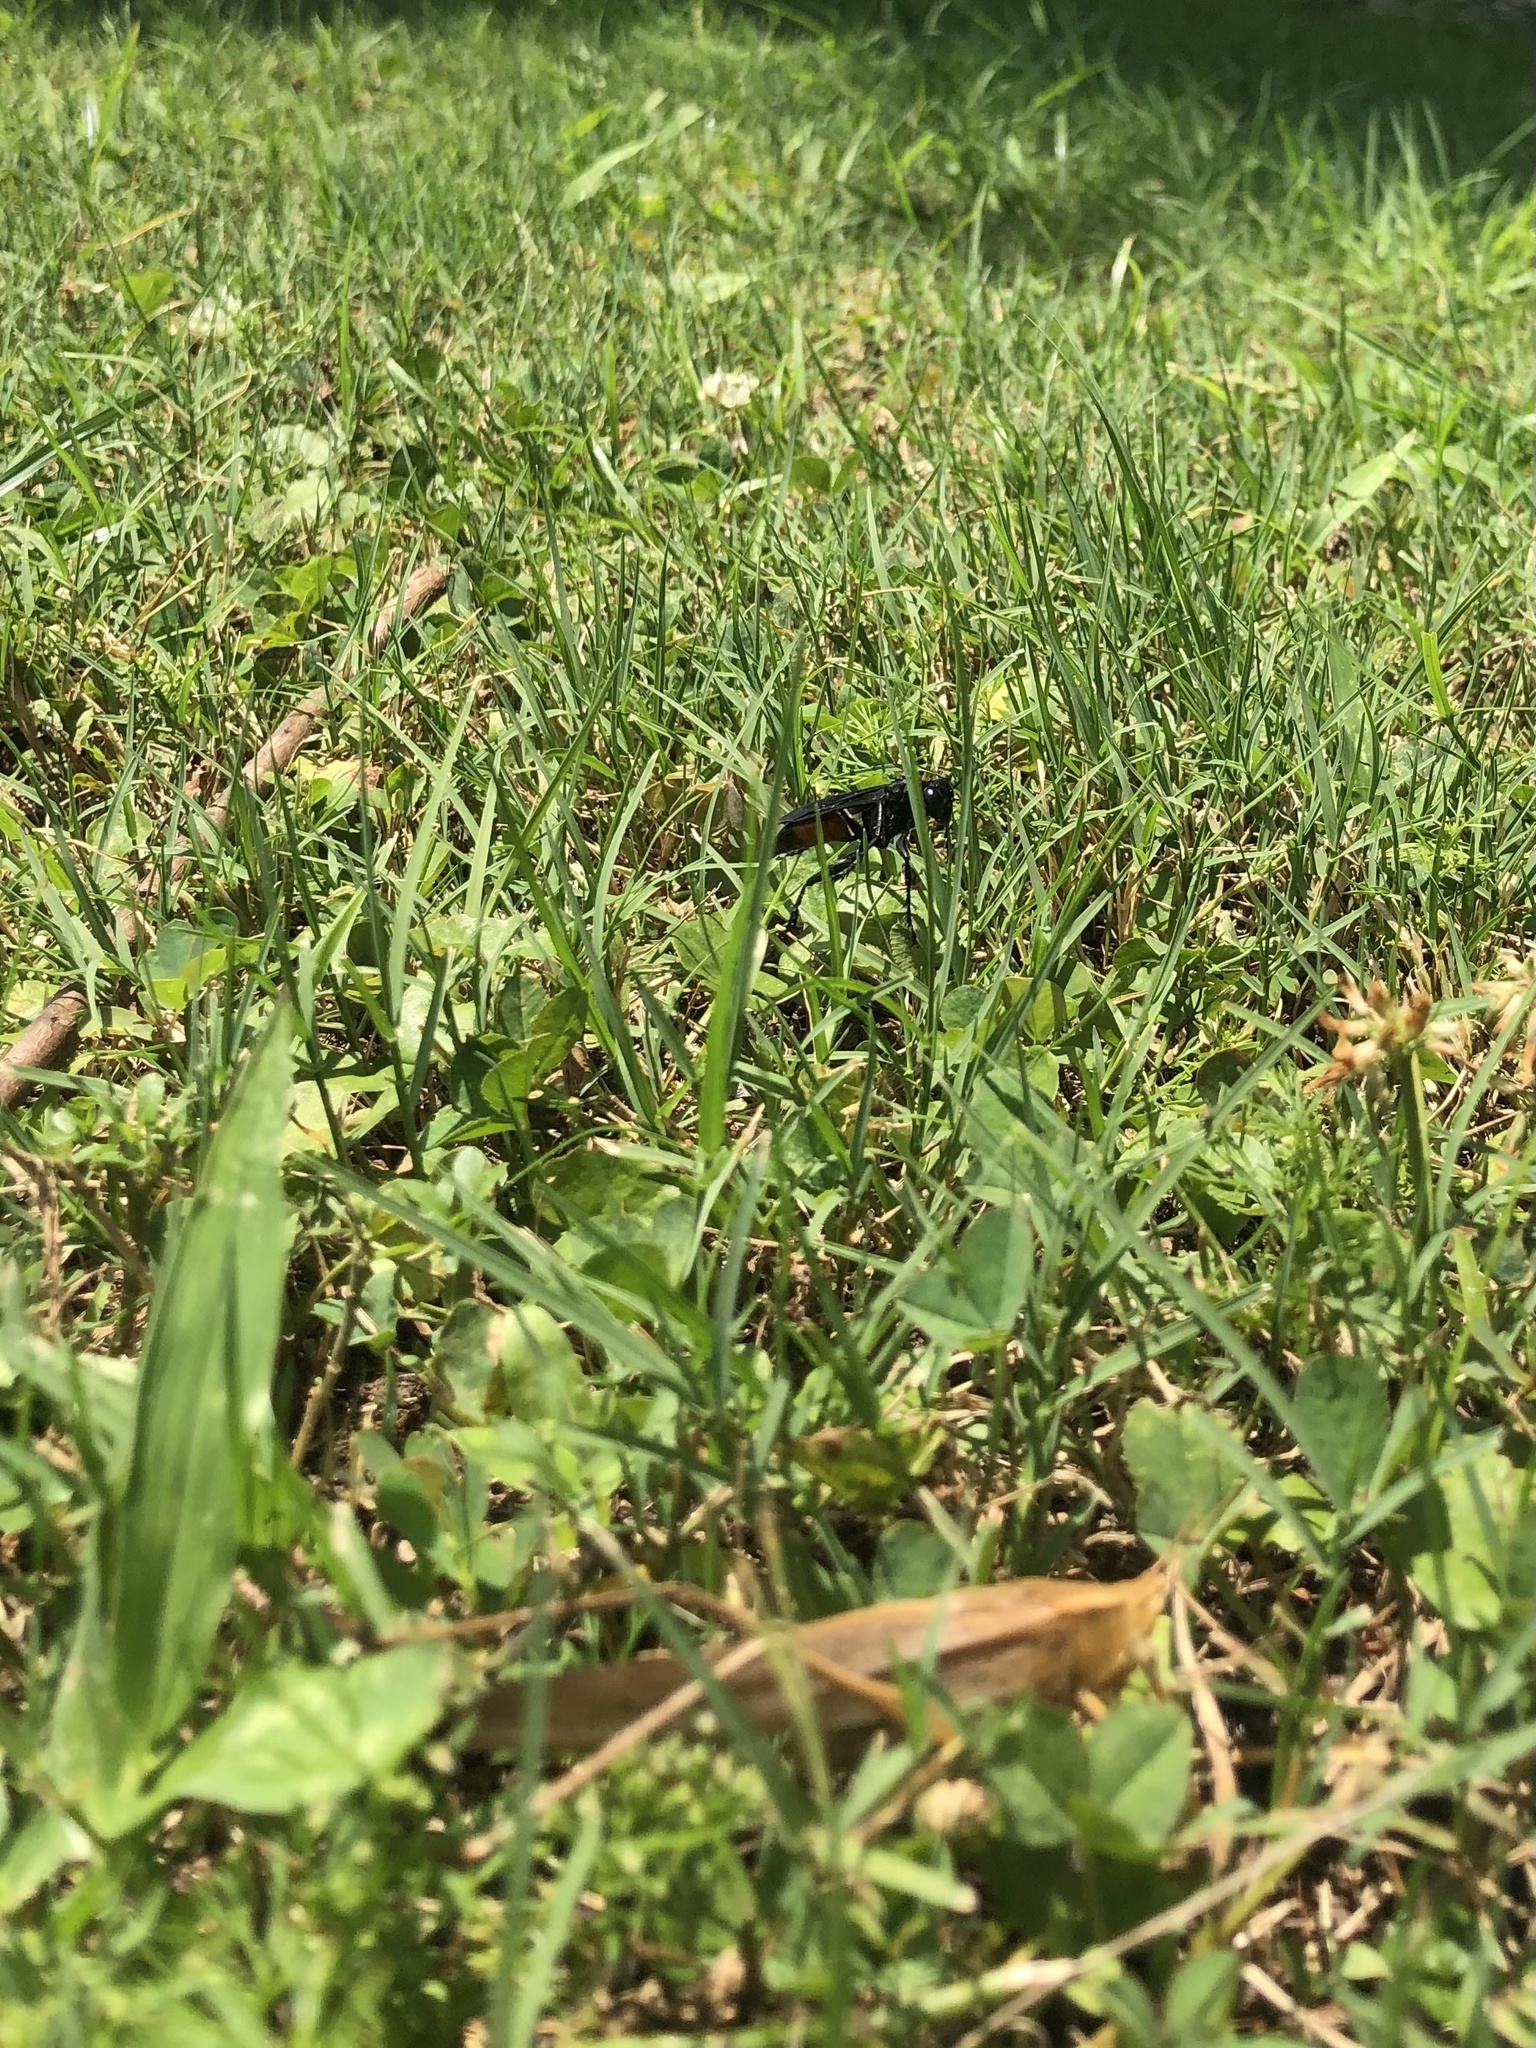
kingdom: Animalia
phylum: Arthropoda
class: Insecta
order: Hymenoptera
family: Sphecidae
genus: Palmodes
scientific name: Palmodes dimidiatus
